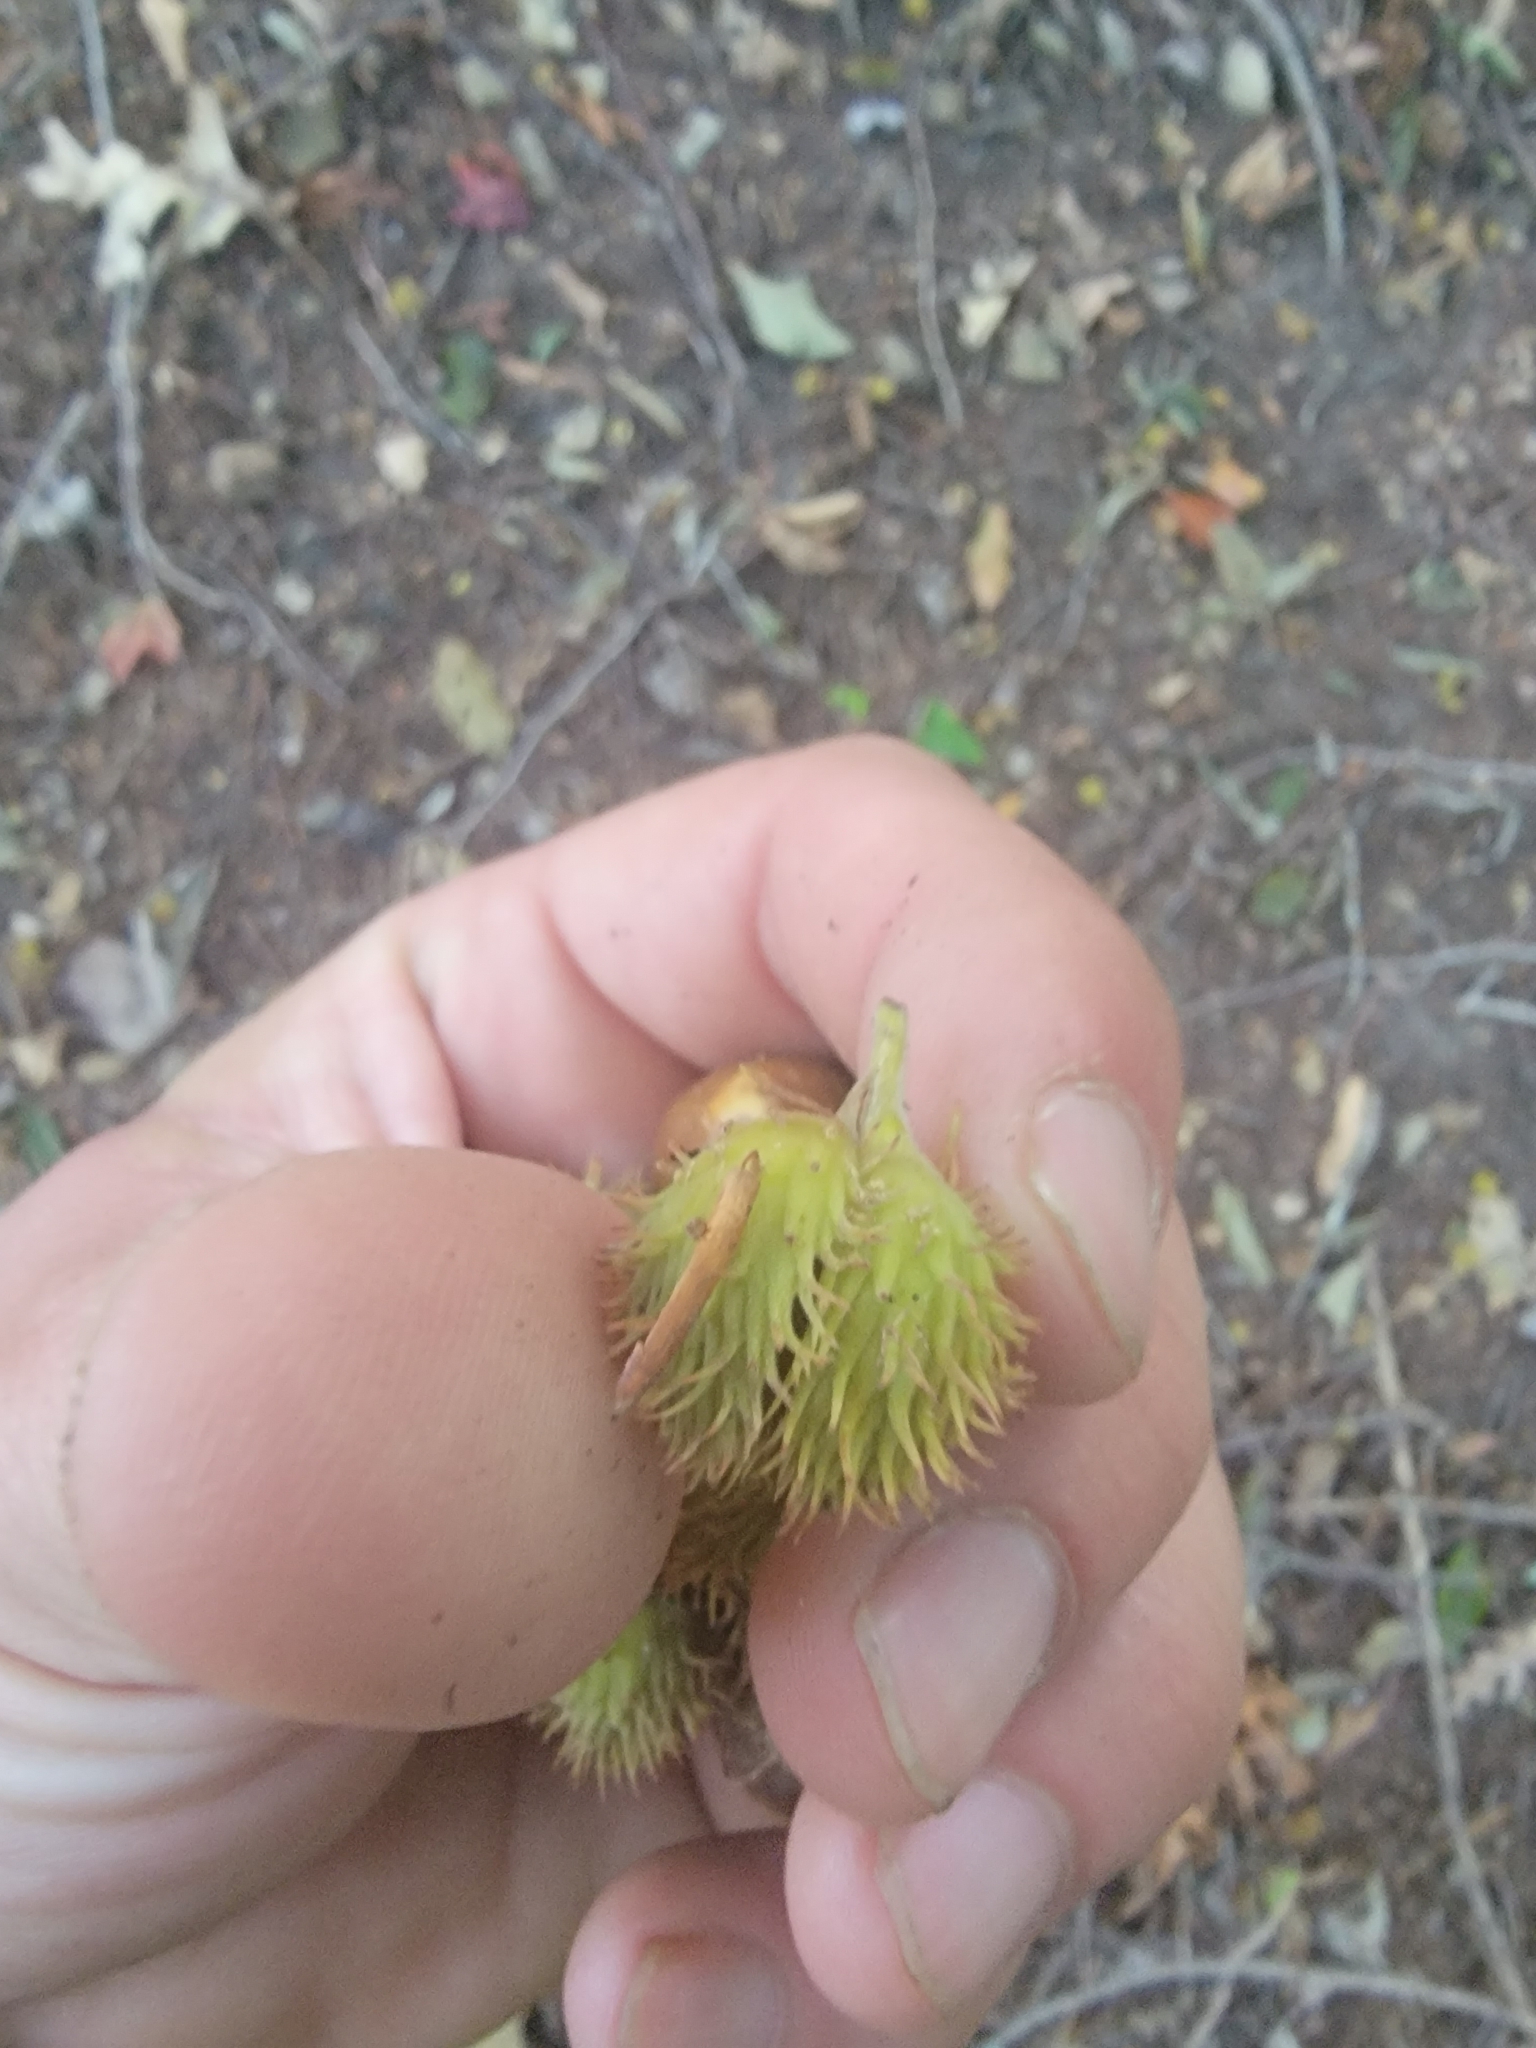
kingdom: Plantae
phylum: Tracheophyta
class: Magnoliopsida
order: Fagales
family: Fagaceae
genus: Fagus
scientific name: Fagus grandifolia
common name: American beech
